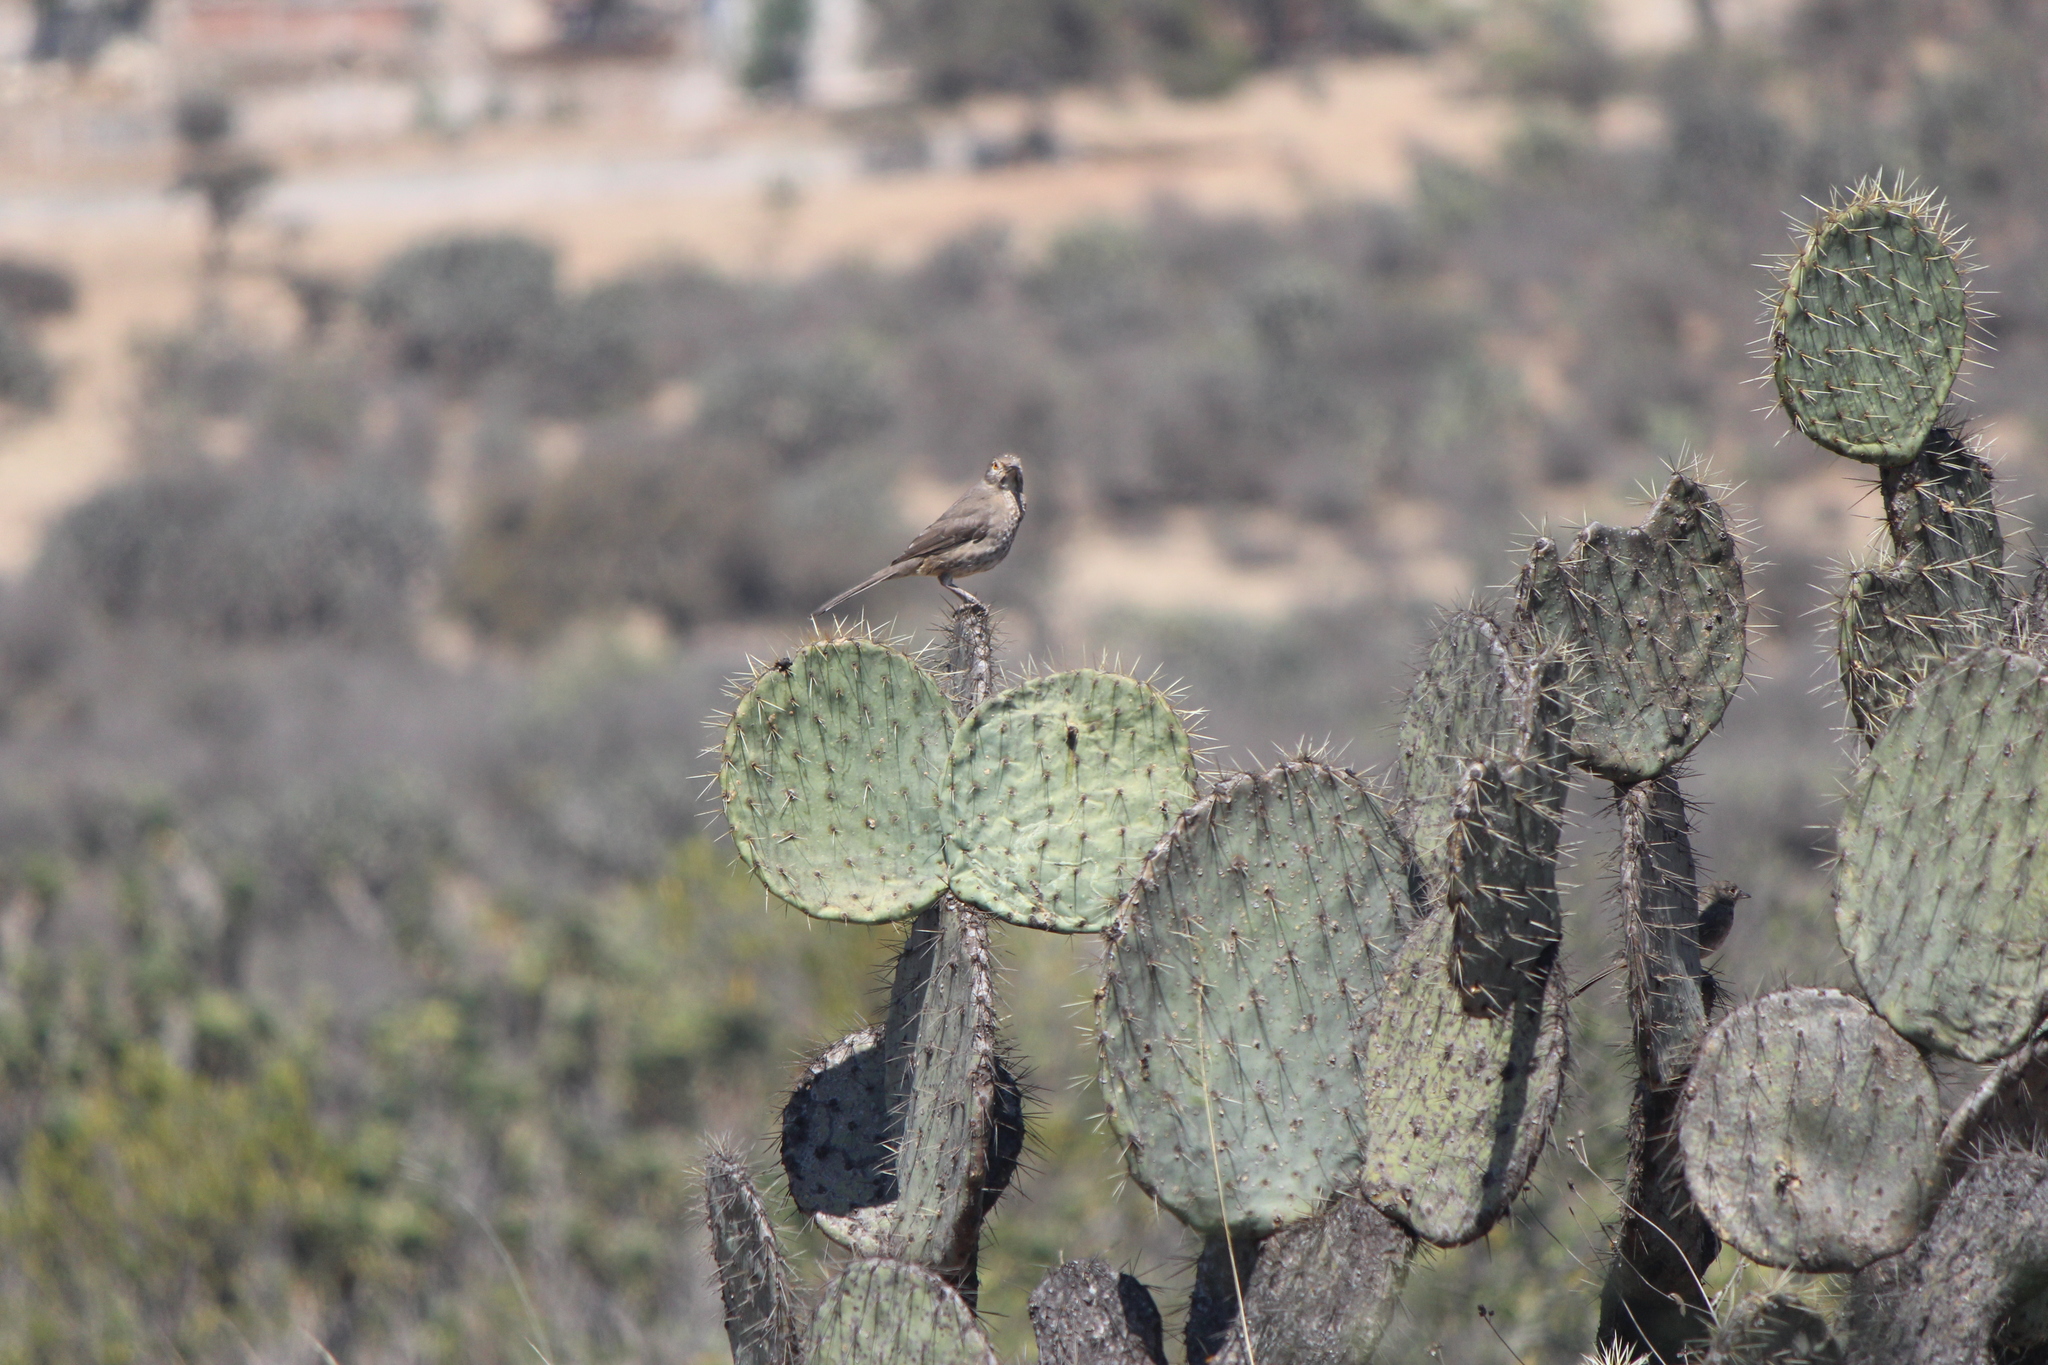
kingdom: Animalia
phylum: Chordata
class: Aves
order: Passeriformes
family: Mimidae
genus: Toxostoma
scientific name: Toxostoma curvirostre
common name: Curve-billed thrasher
